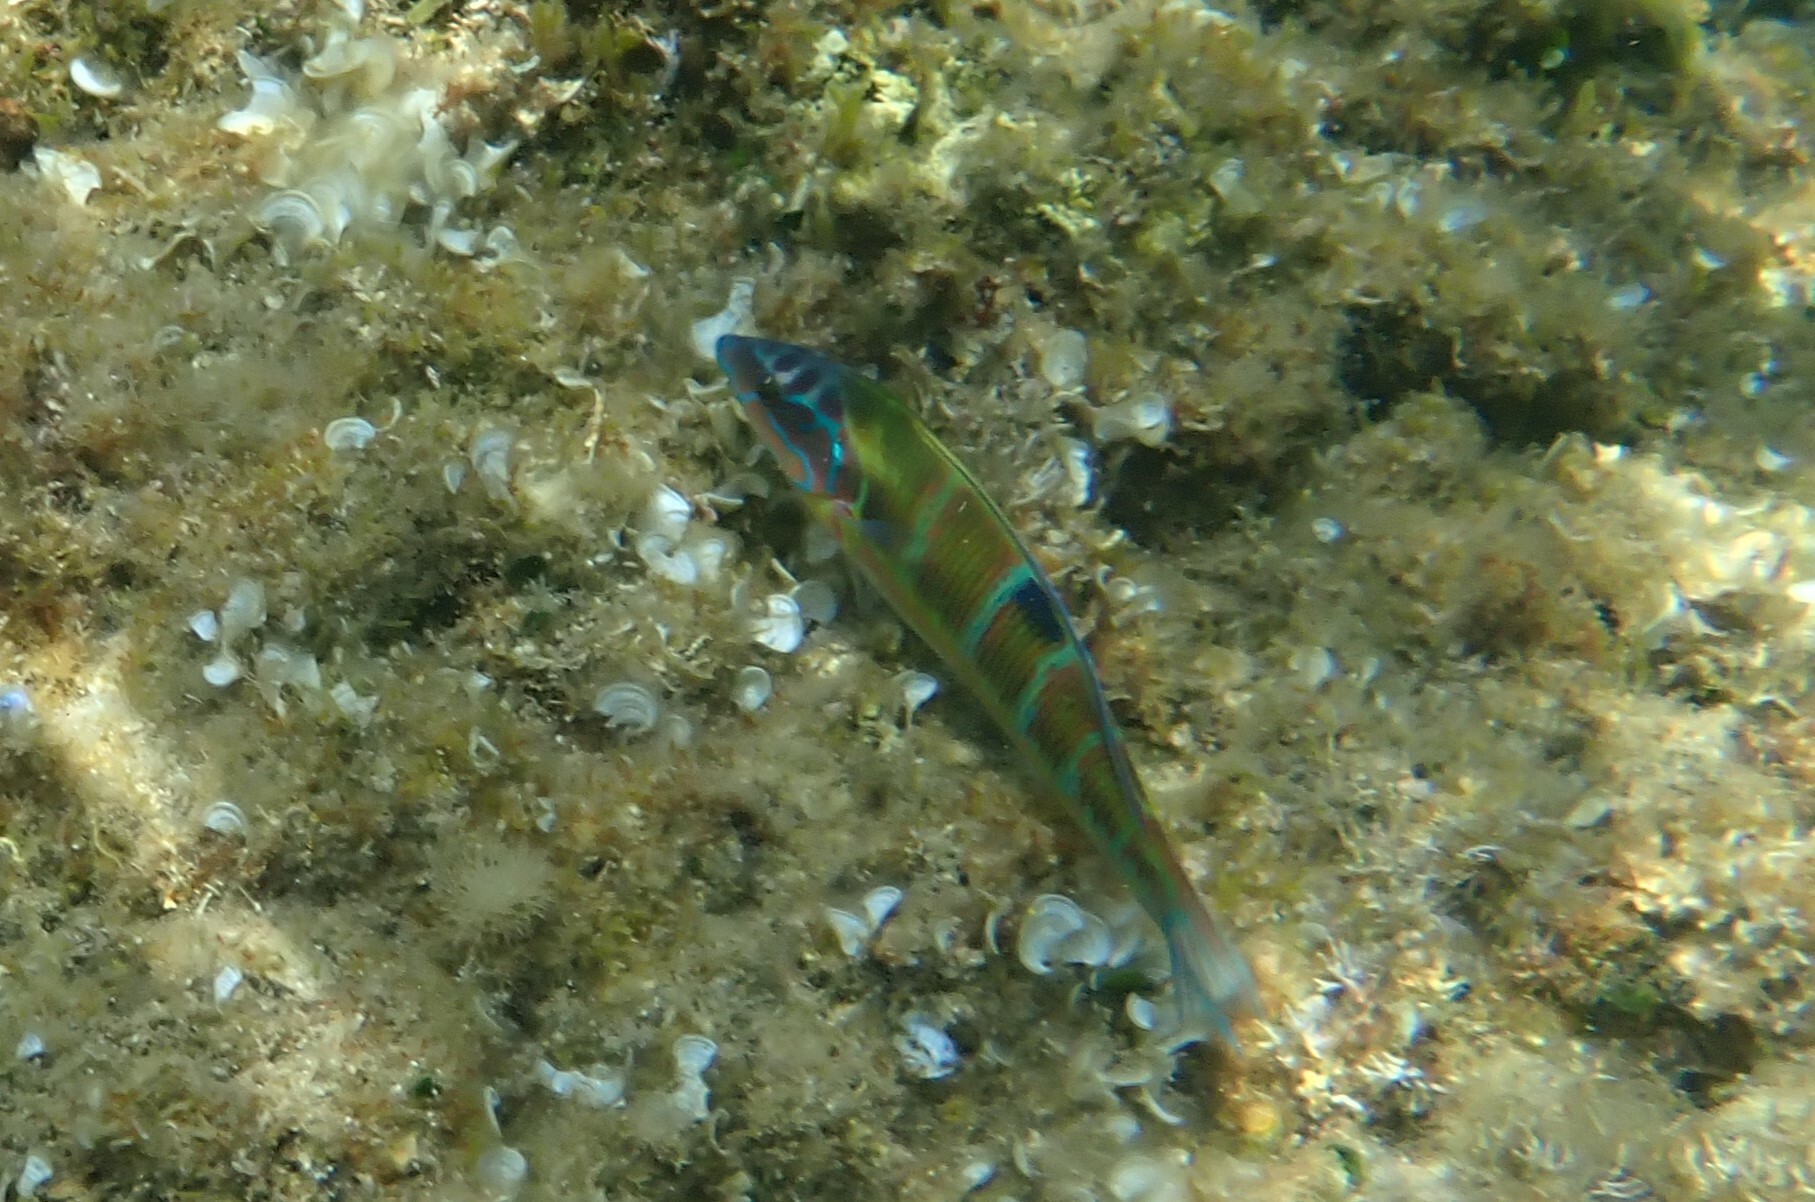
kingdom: Animalia
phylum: Chordata
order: Perciformes
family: Labridae
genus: Thalassoma
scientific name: Thalassoma pavo
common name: Ornate wrasse
